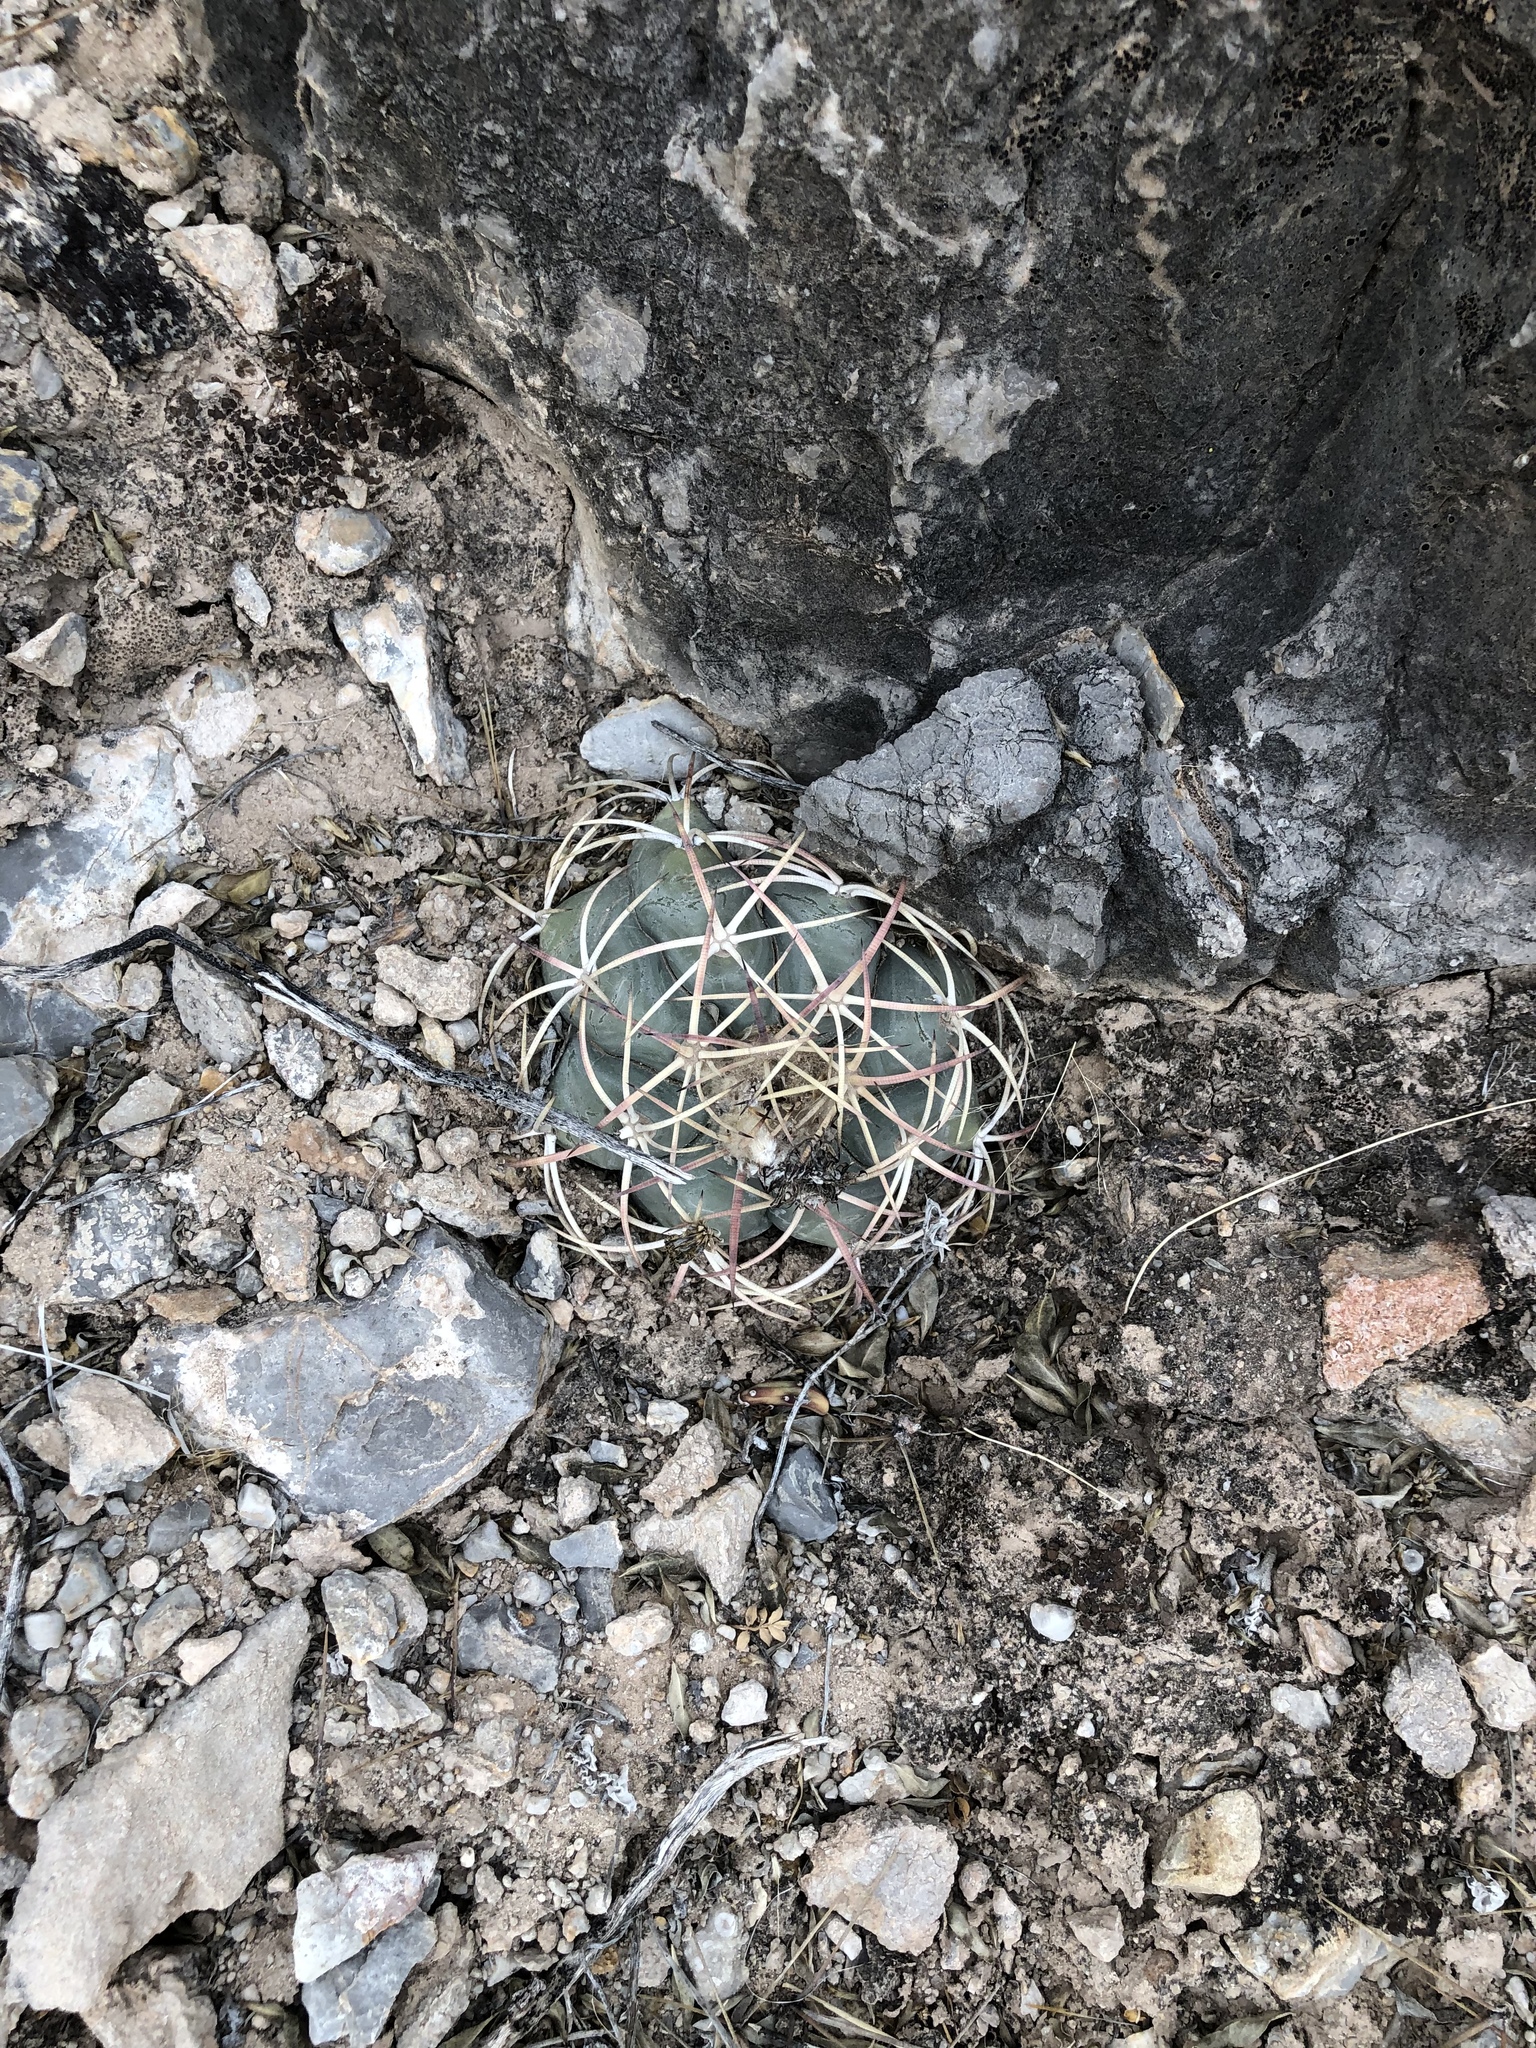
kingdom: Plantae
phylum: Tracheophyta
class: Magnoliopsida
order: Caryophyllales
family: Cactaceae
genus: Echinocactus
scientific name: Echinocactus horizonthalonius
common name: Devilshead
